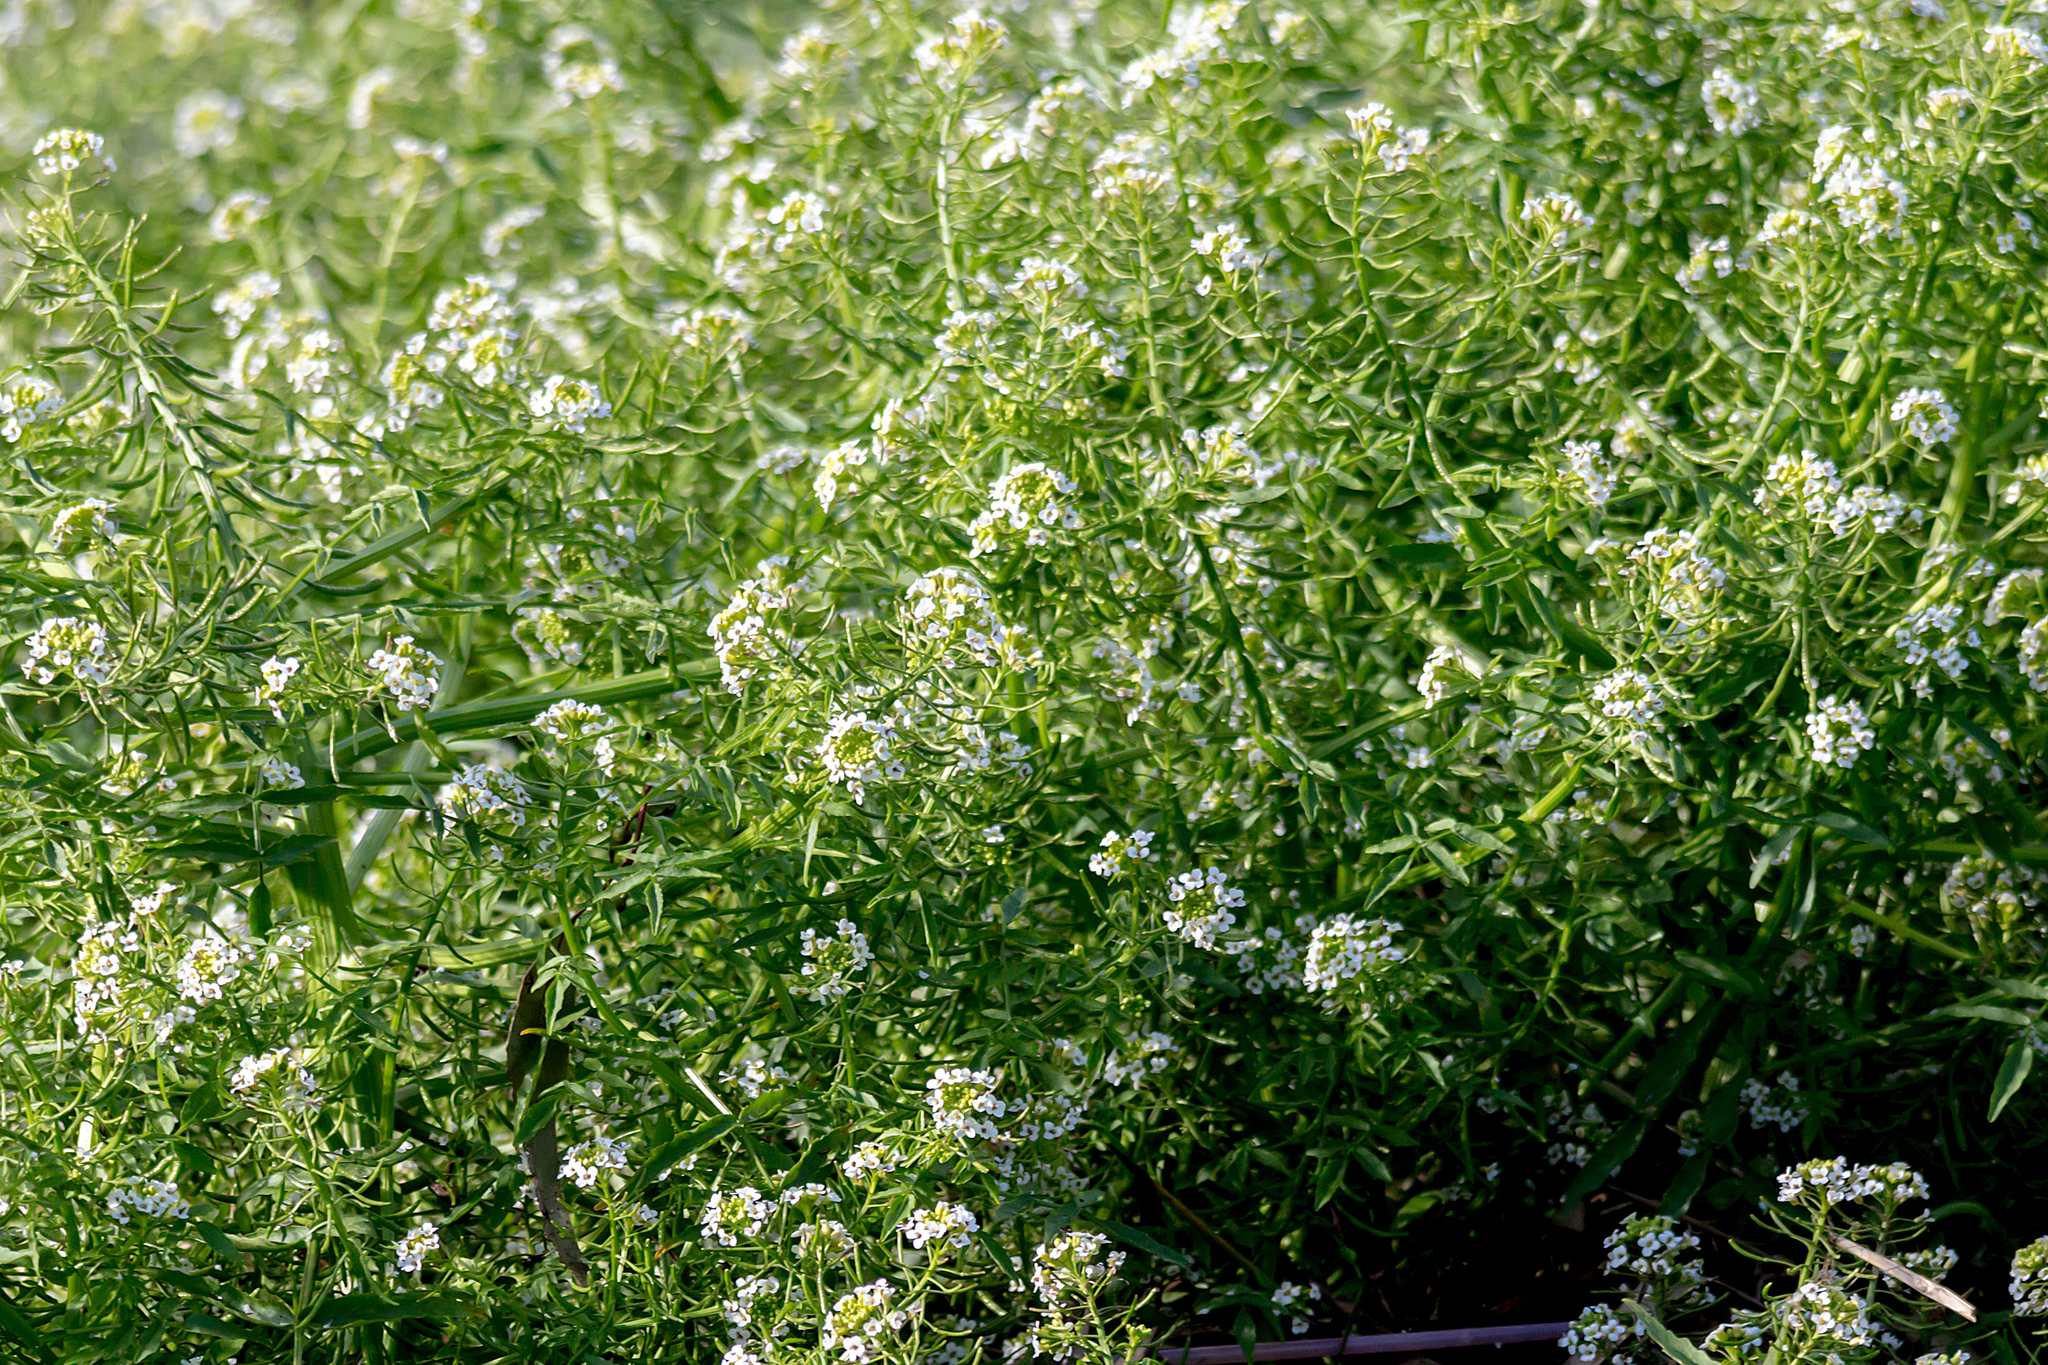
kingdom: Plantae
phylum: Tracheophyta
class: Magnoliopsida
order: Brassicales
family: Brassicaceae
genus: Nasturtium
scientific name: Nasturtium officinale
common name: Watercress
